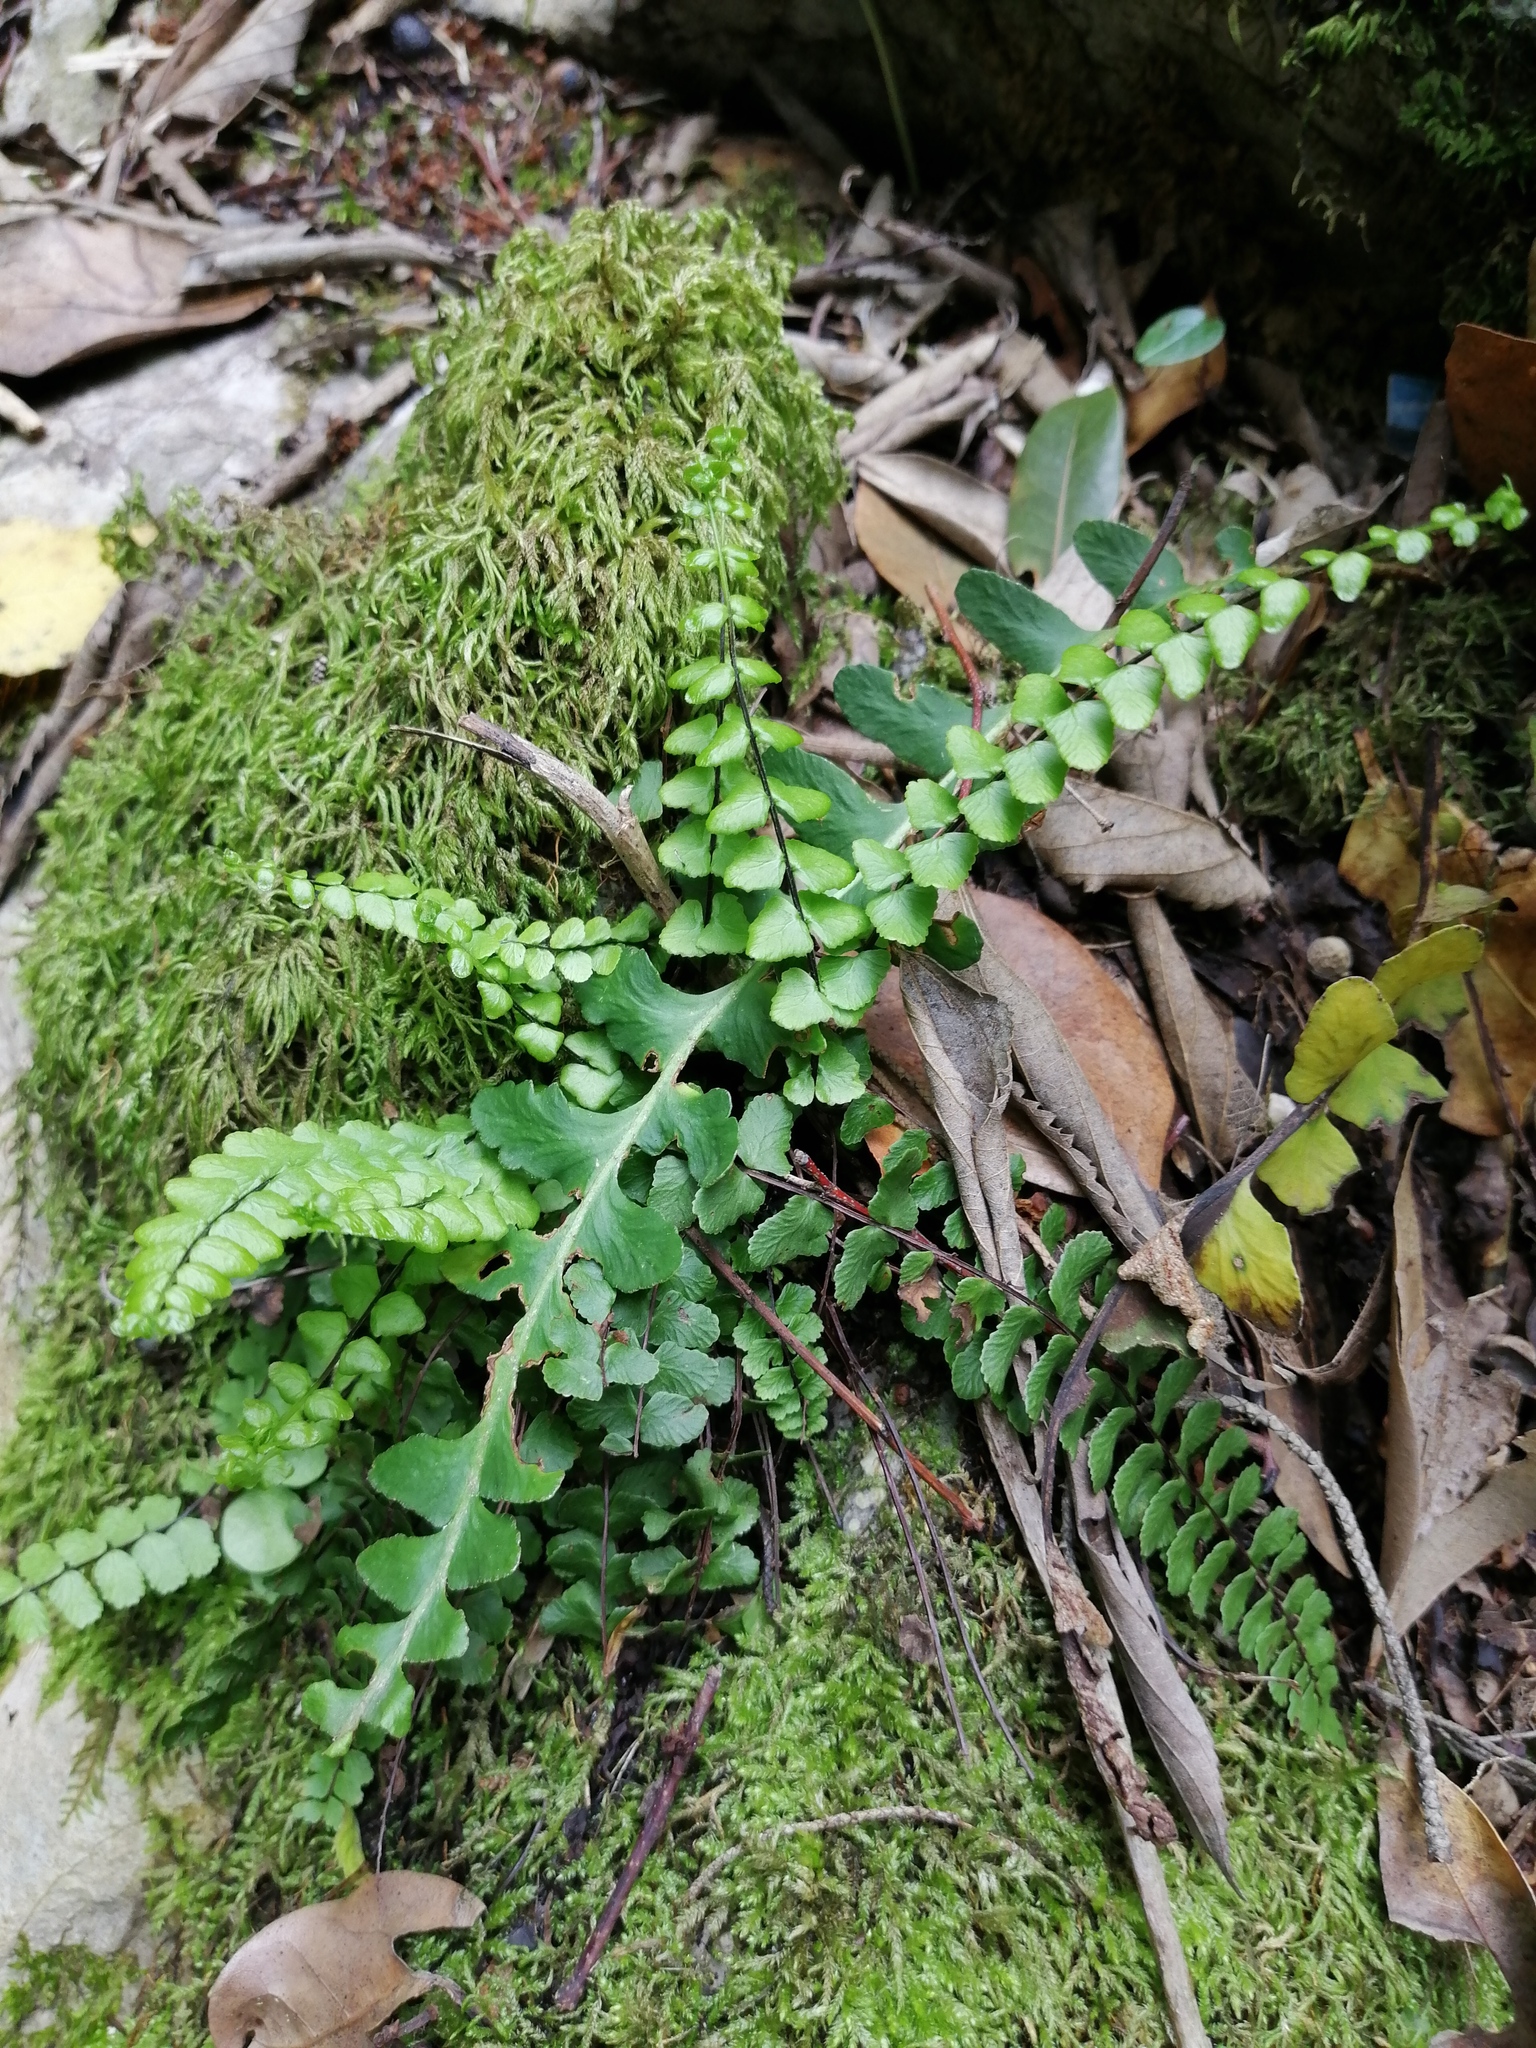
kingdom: Plantae
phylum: Tracheophyta
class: Polypodiopsida
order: Polypodiales
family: Aspleniaceae
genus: Asplenium
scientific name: Asplenium trichomanes
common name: Maidenhair spleenwort
